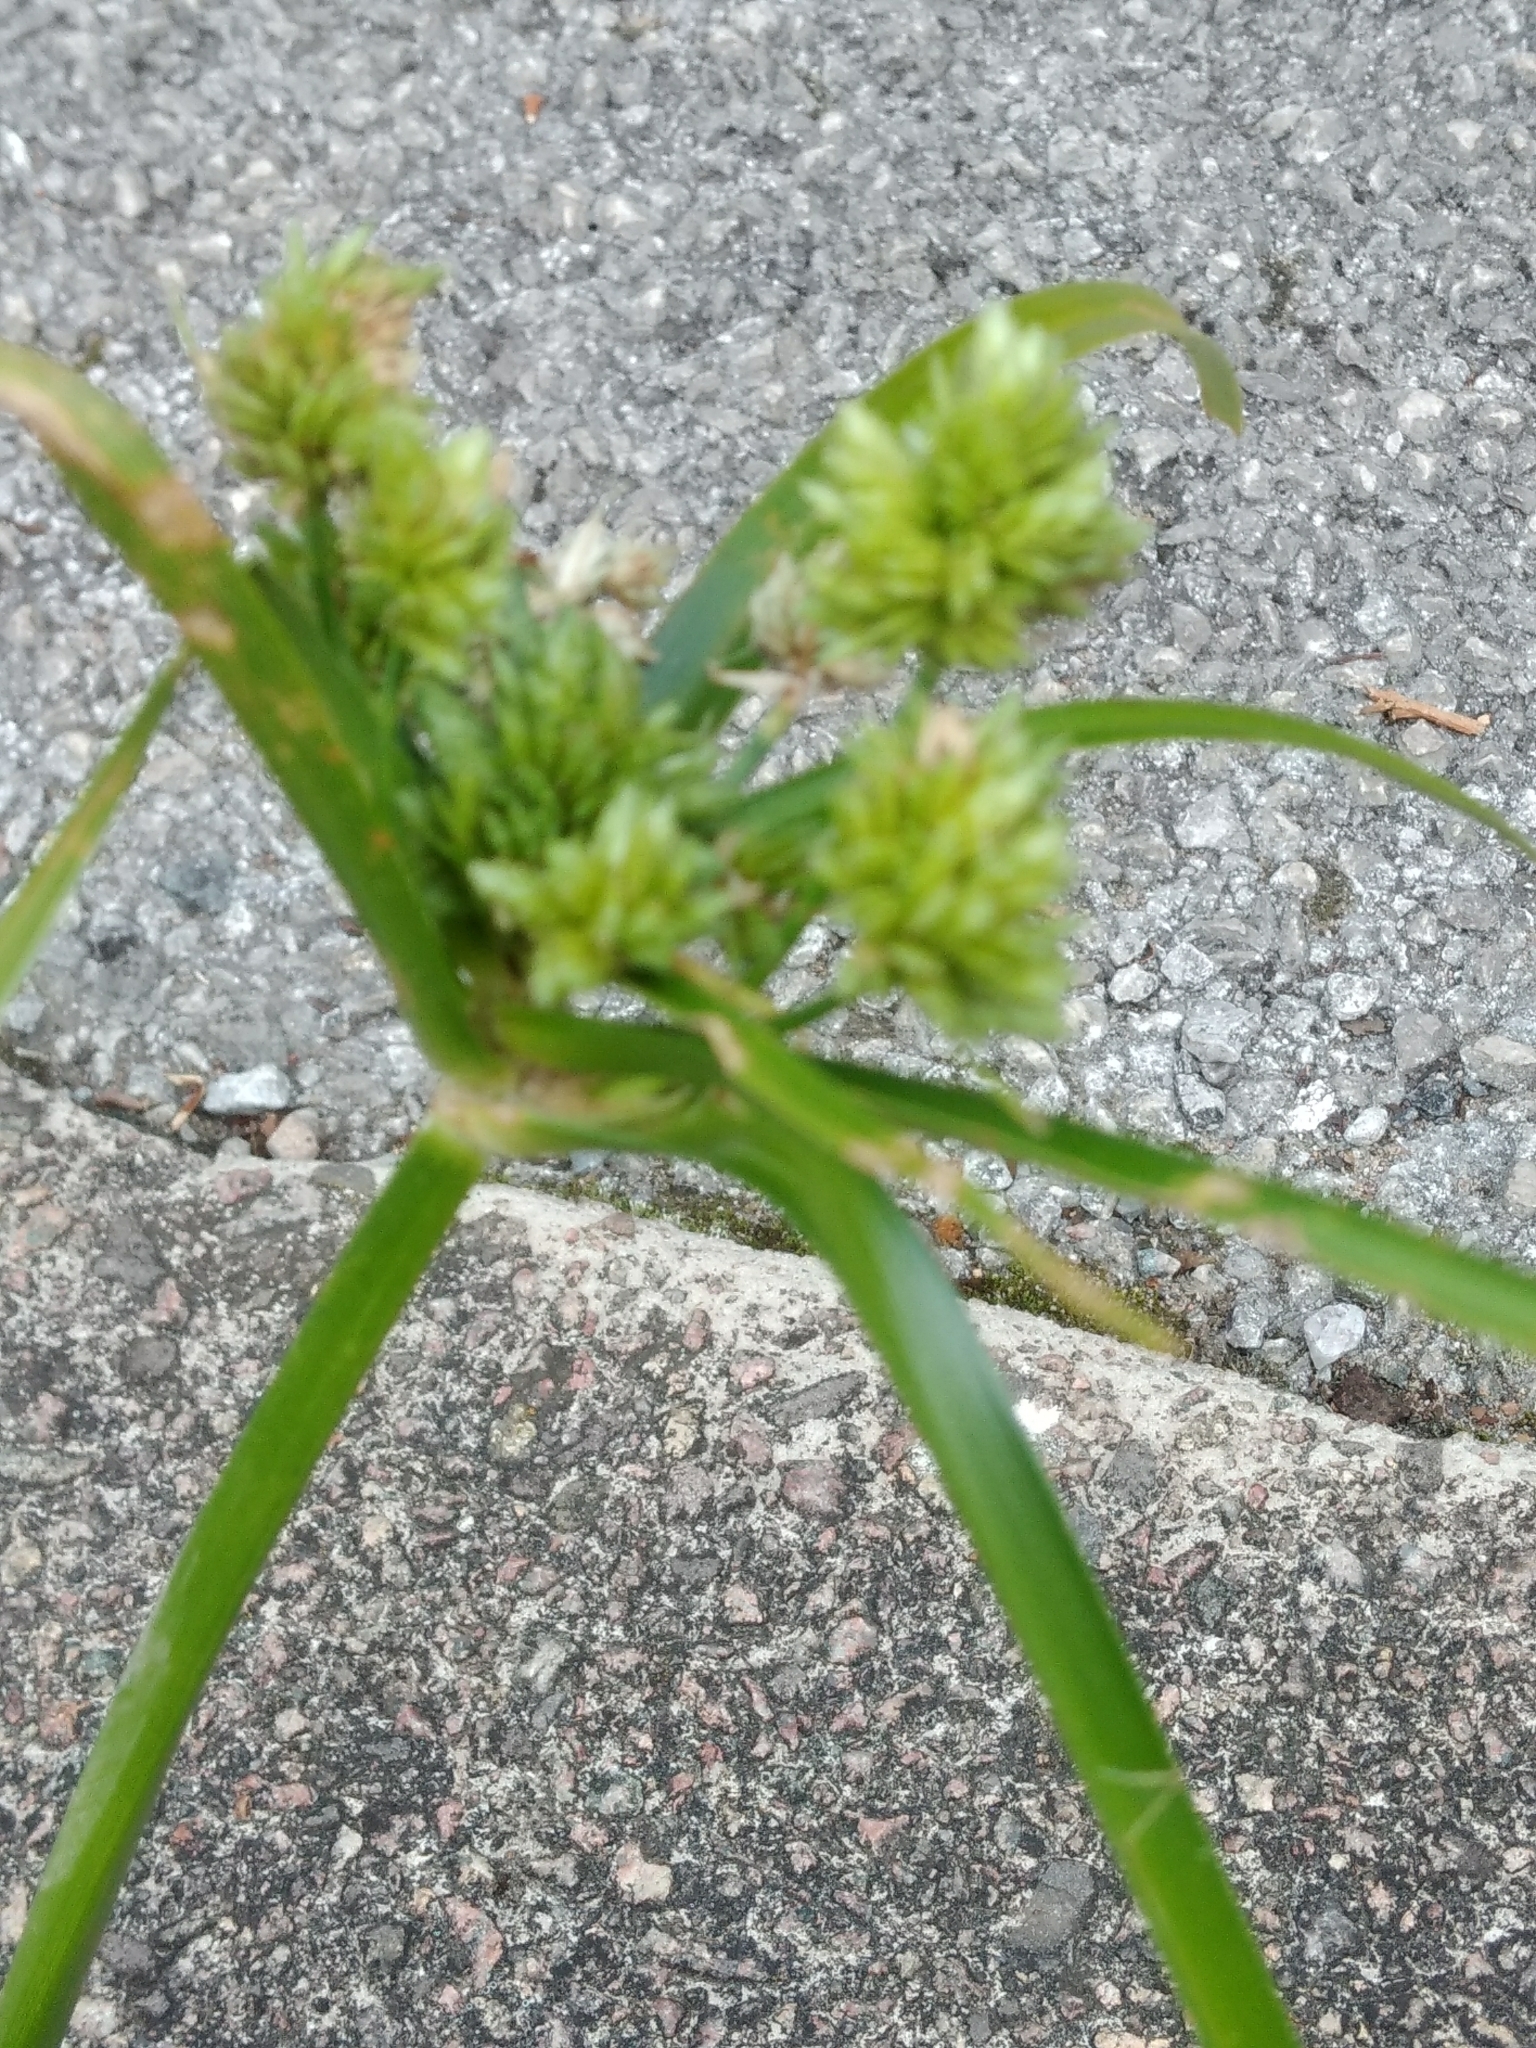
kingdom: Plantae
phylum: Tracheophyta
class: Liliopsida
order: Poales
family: Cyperaceae
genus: Cyperus
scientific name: Cyperus eragrostis
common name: Tall flatsedge
